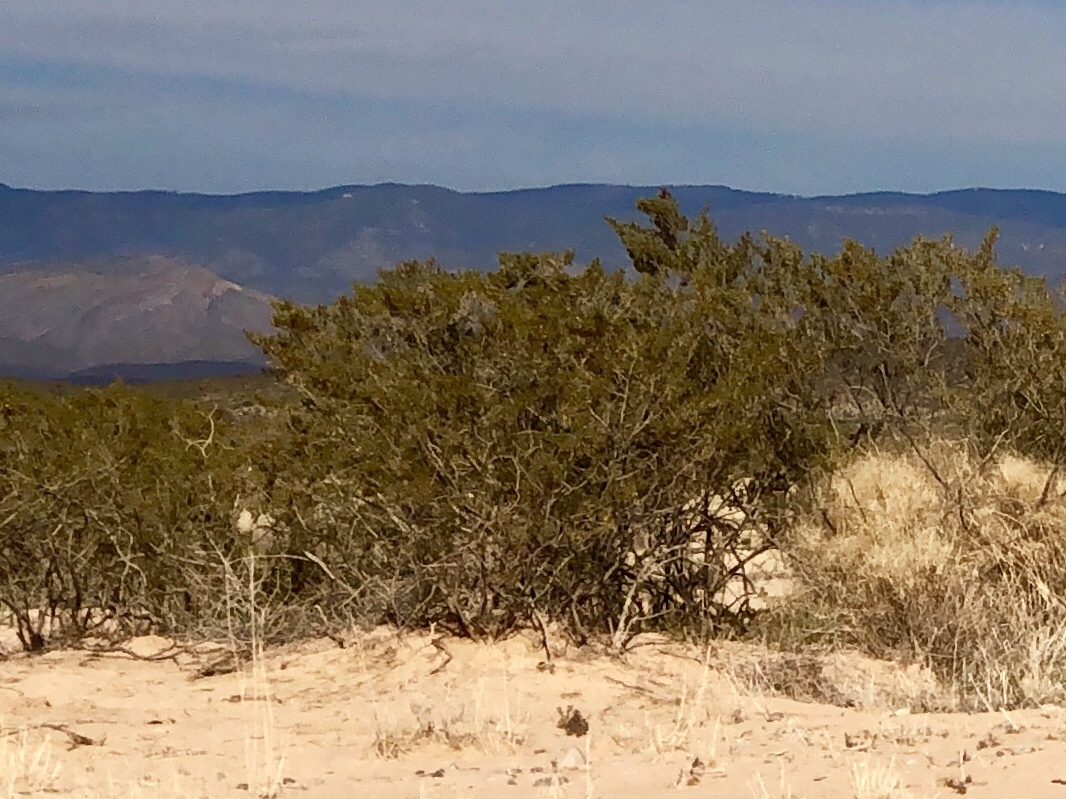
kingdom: Plantae
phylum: Tracheophyta
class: Magnoliopsida
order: Zygophyllales
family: Zygophyllaceae
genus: Larrea
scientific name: Larrea tridentata
